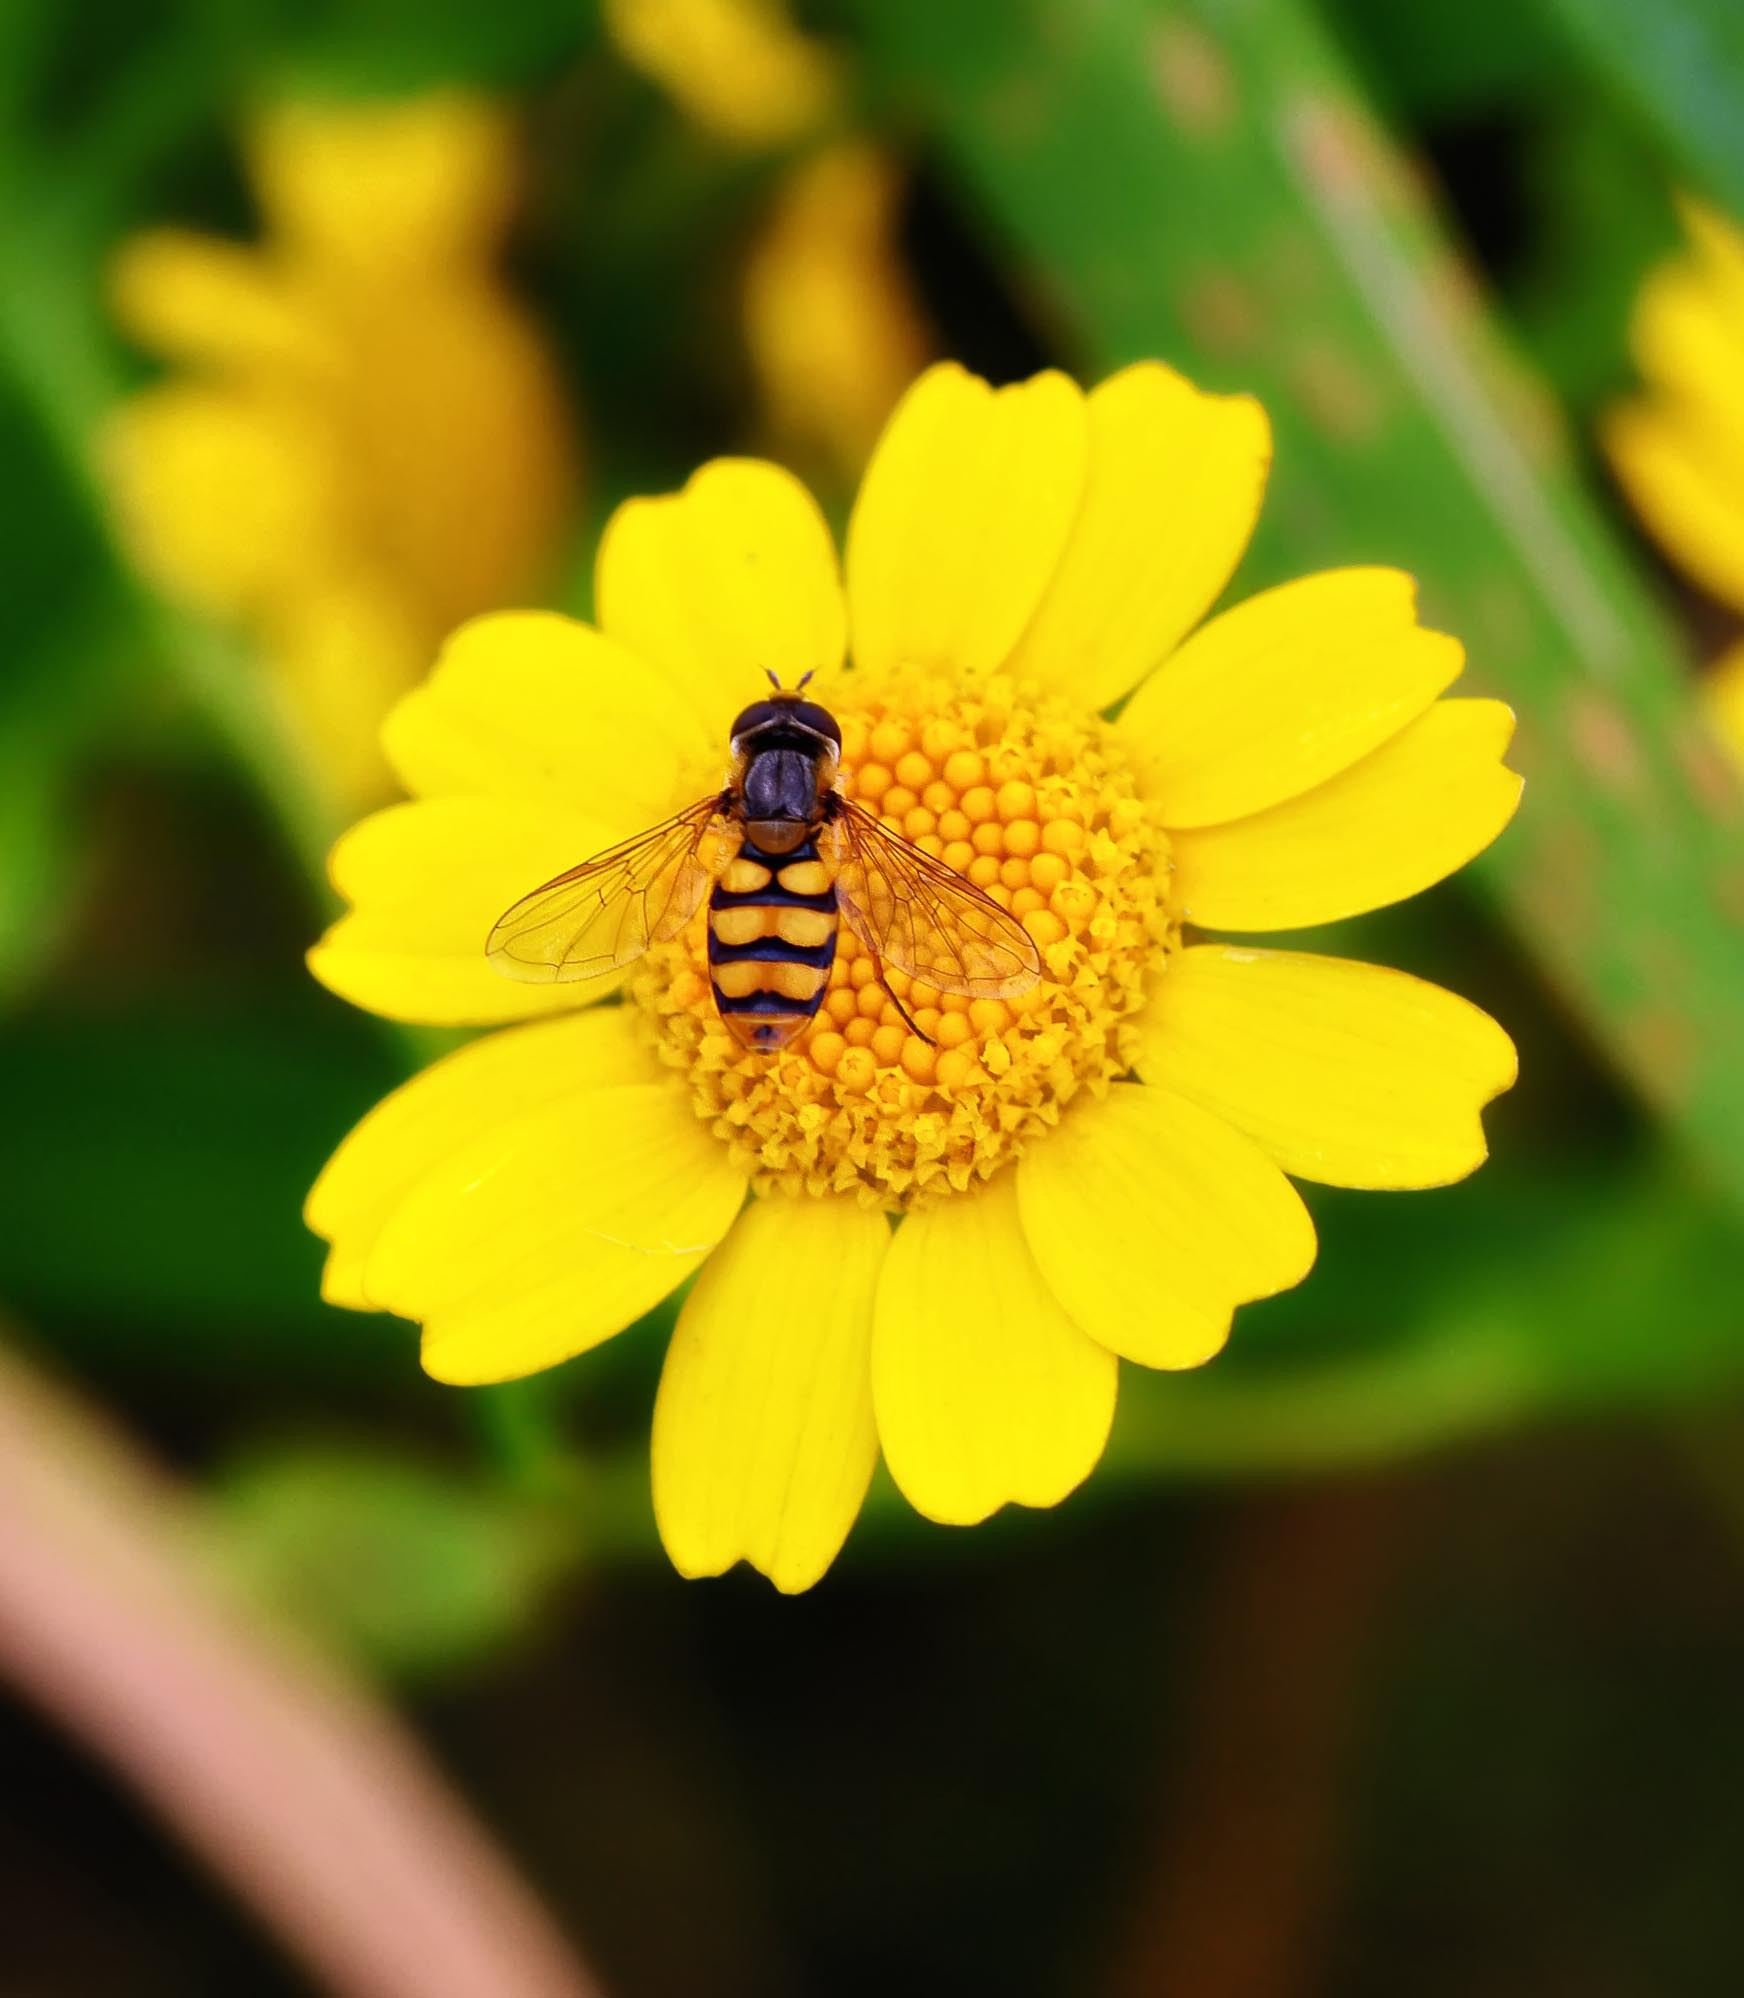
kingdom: Animalia
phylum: Arthropoda
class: Insecta
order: Diptera
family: Syrphidae
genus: Eupeodes
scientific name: Eupeodes latifasciatus
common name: Variable aphideater
